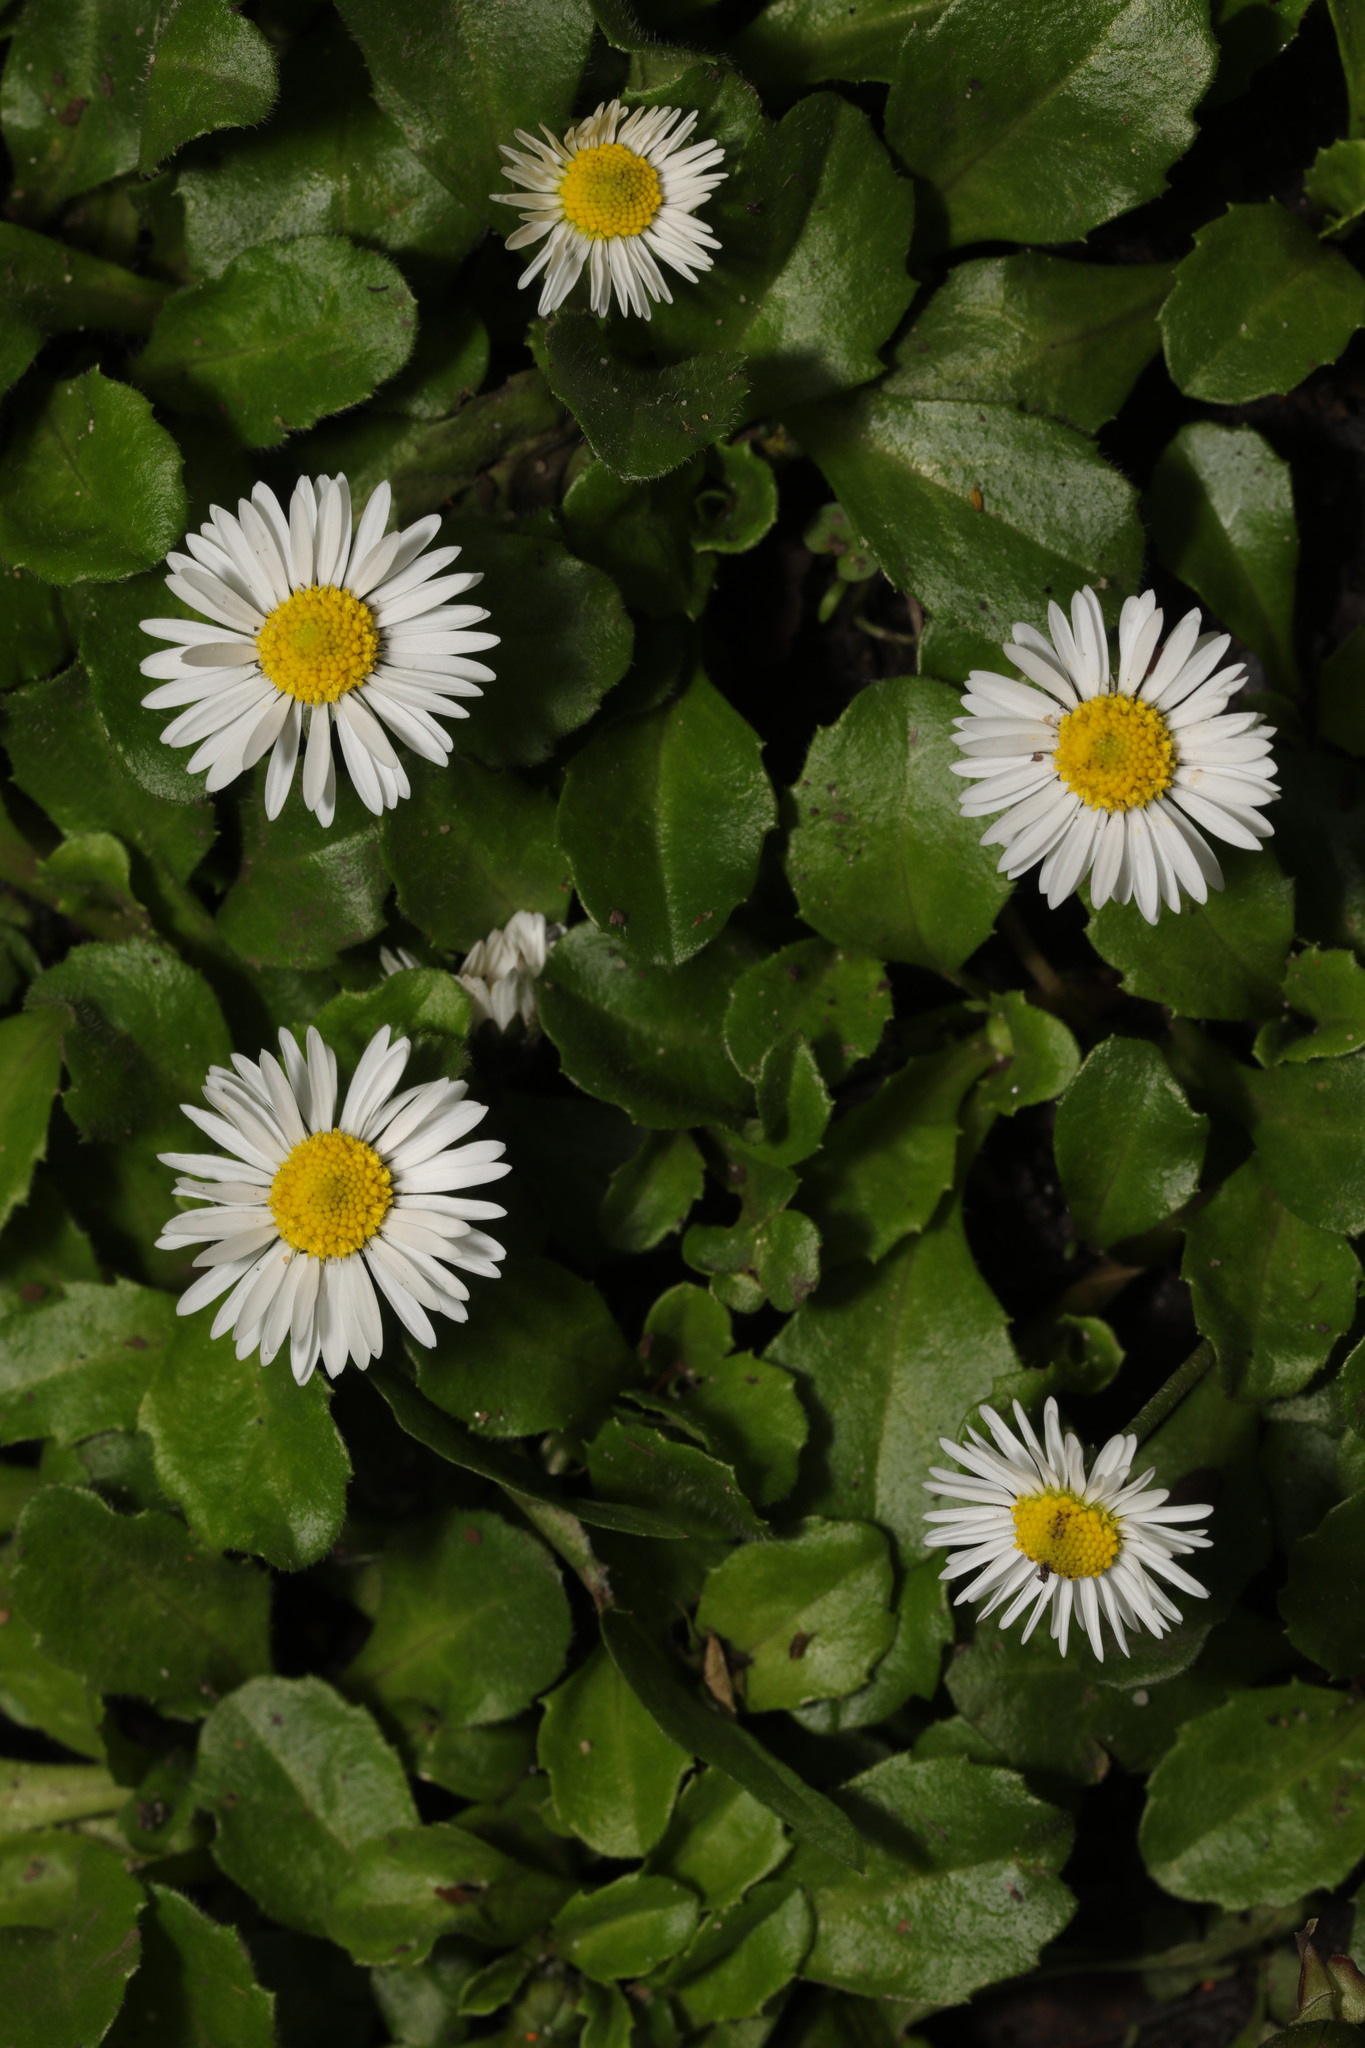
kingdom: Plantae
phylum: Tracheophyta
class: Magnoliopsida
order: Asterales
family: Asteraceae
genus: Bellis
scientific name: Bellis perennis
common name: Lawndaisy
